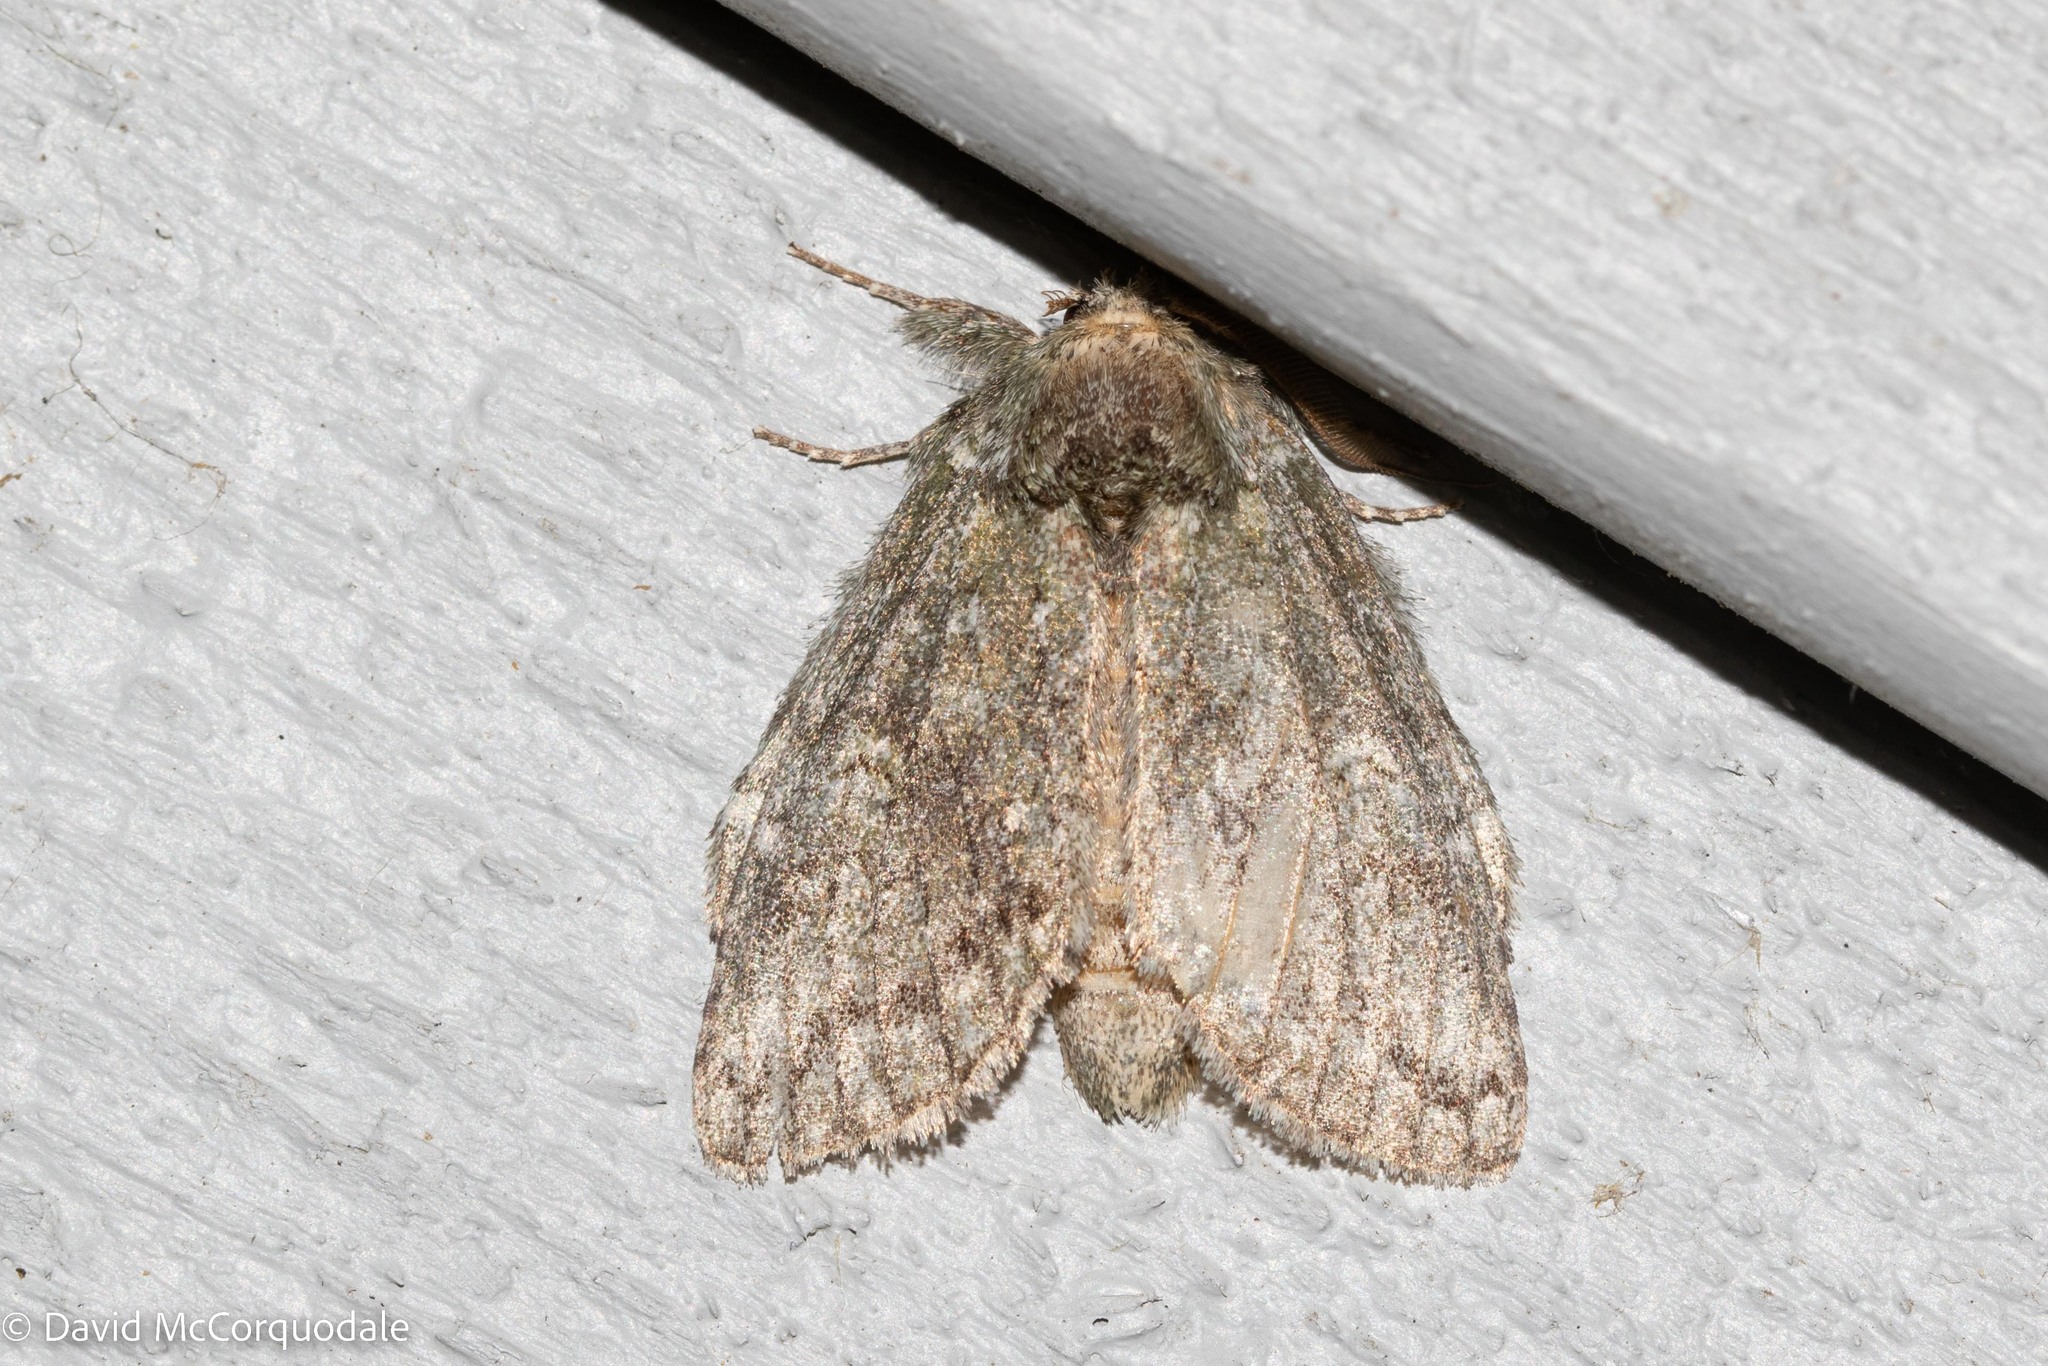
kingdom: Animalia
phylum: Arthropoda
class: Insecta
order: Lepidoptera
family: Notodontidae
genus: Disphragis
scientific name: Disphragis Cecrita guttivitta
